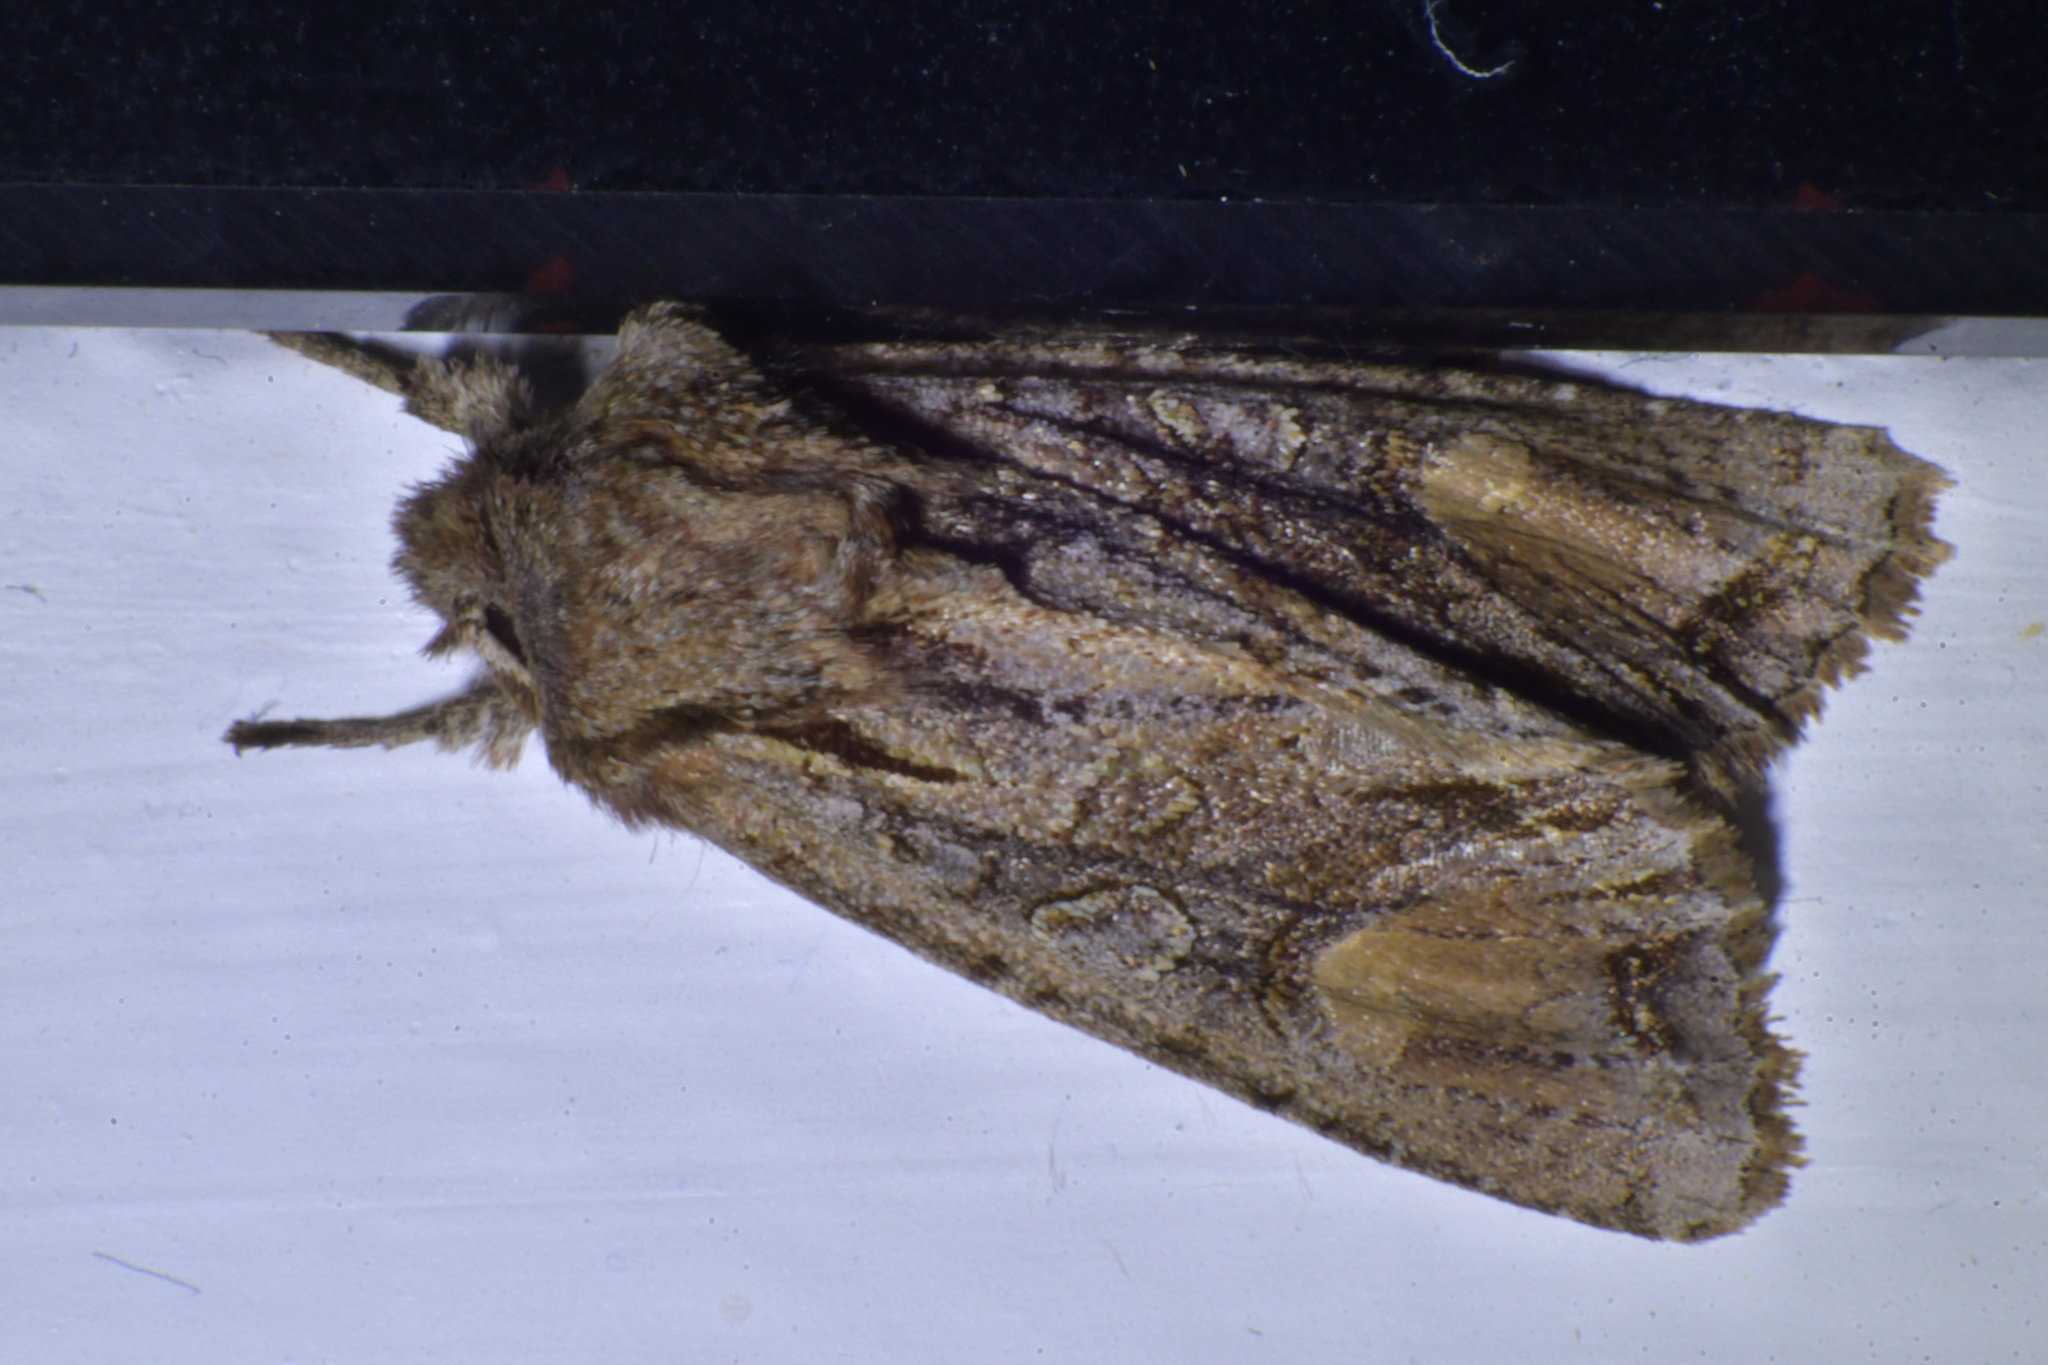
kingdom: Animalia
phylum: Arthropoda
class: Insecta
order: Lepidoptera
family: Noctuidae
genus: Ichneutica
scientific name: Ichneutica
